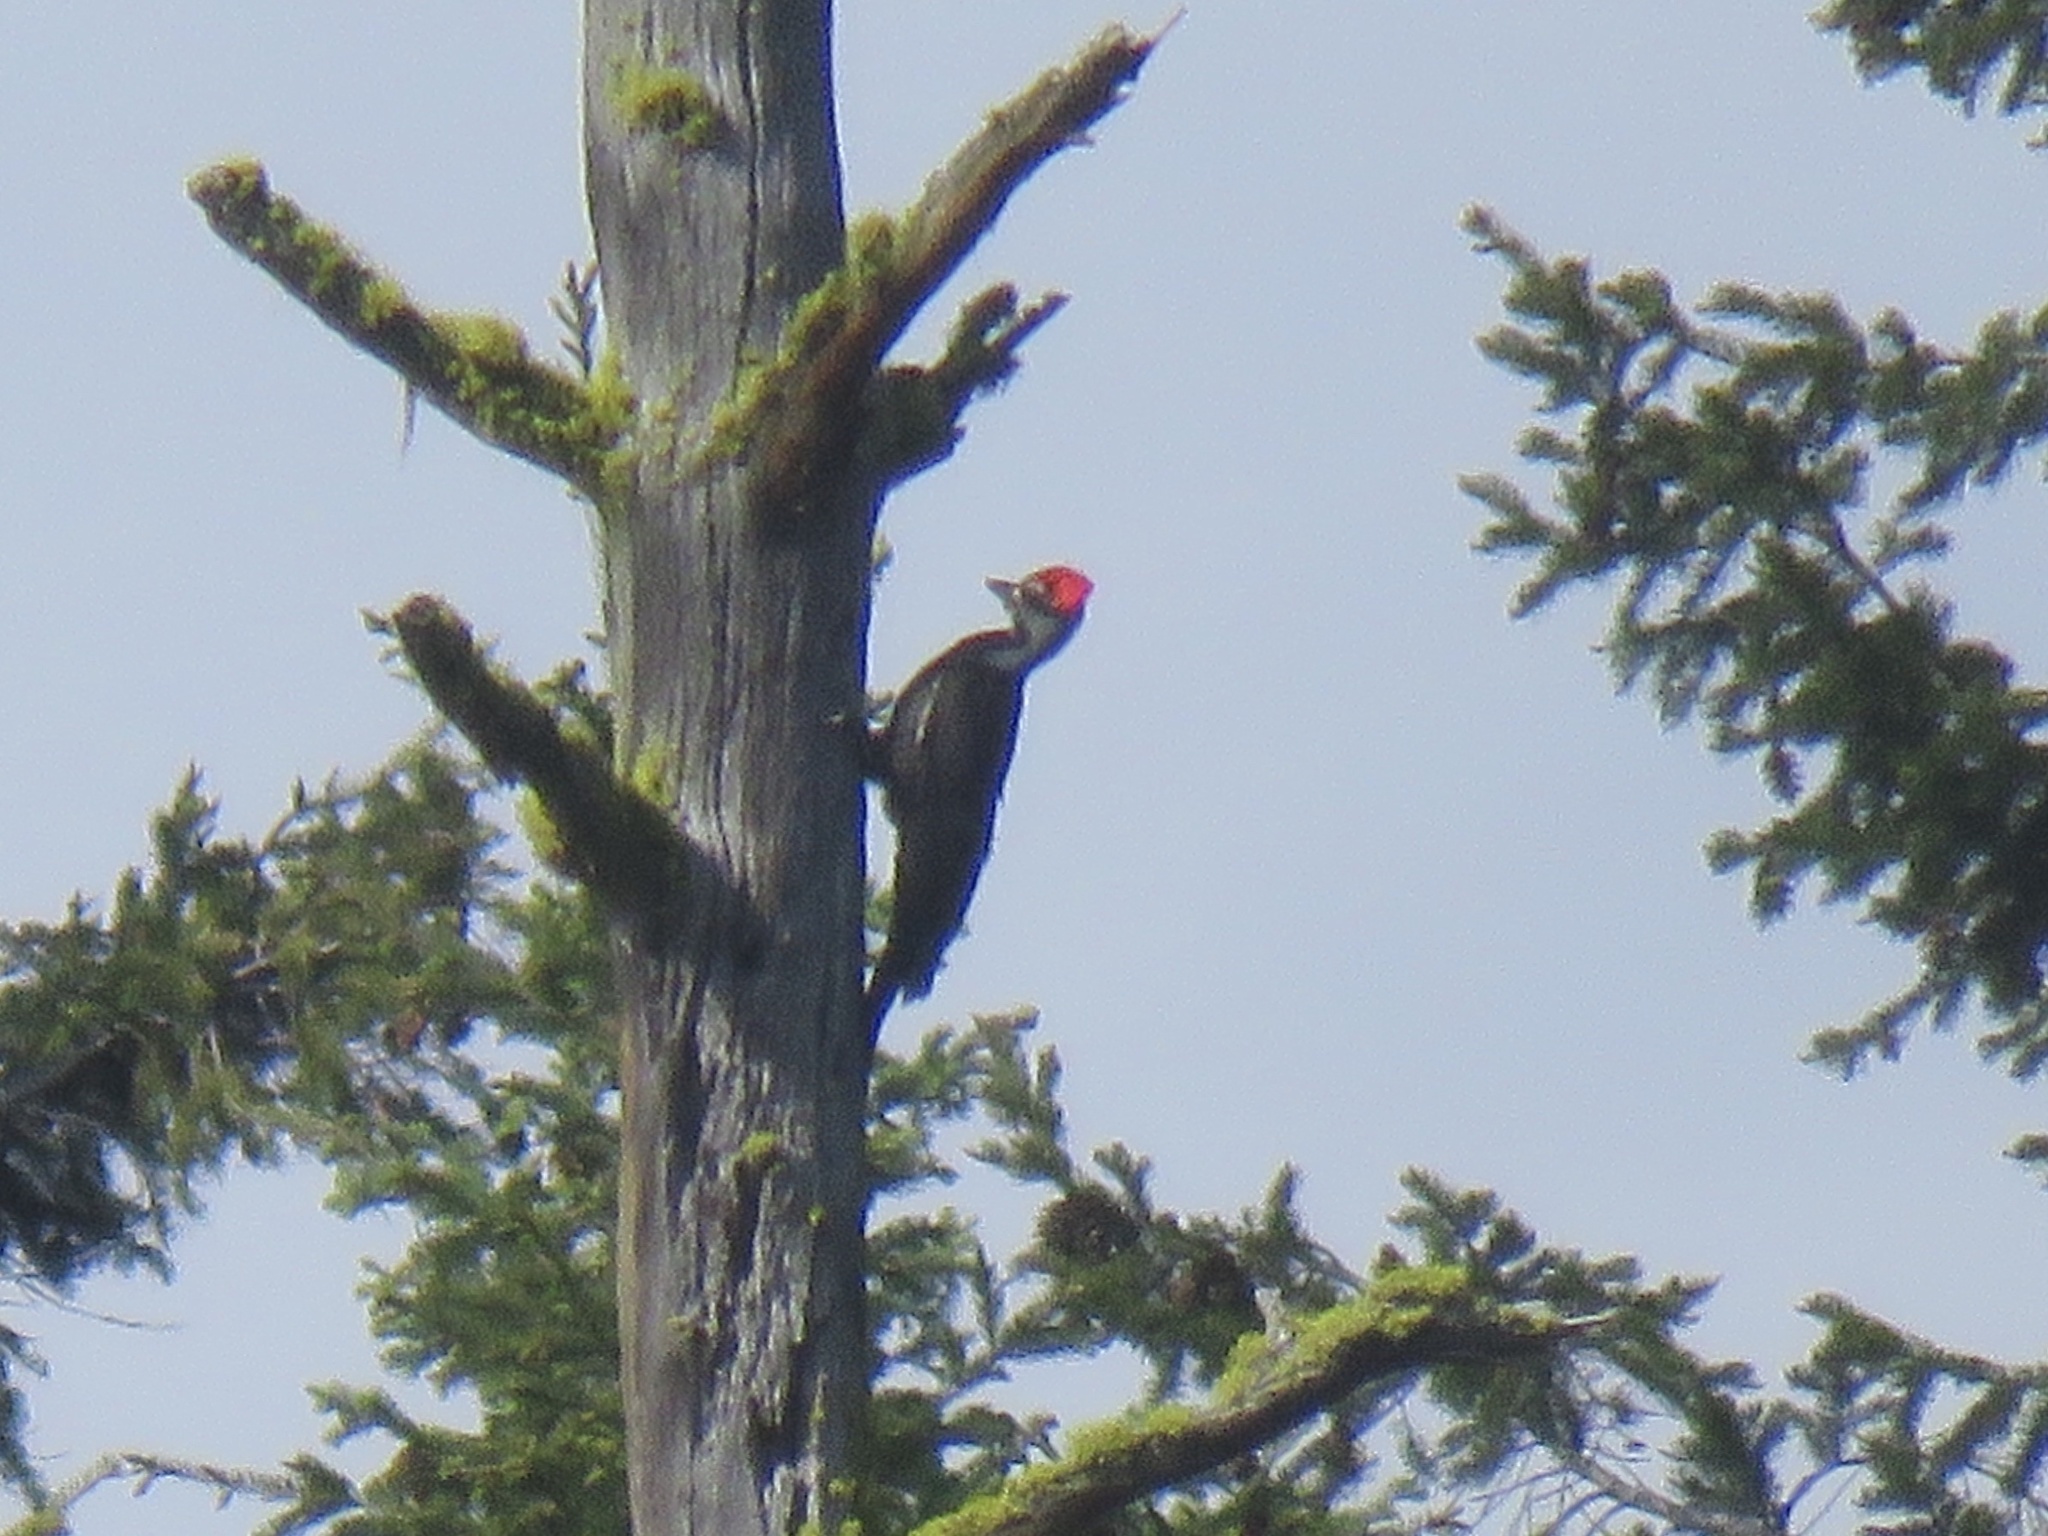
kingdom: Animalia
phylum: Chordata
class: Aves
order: Piciformes
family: Picidae
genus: Dryocopus
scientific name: Dryocopus pileatus
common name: Pileated woodpecker
